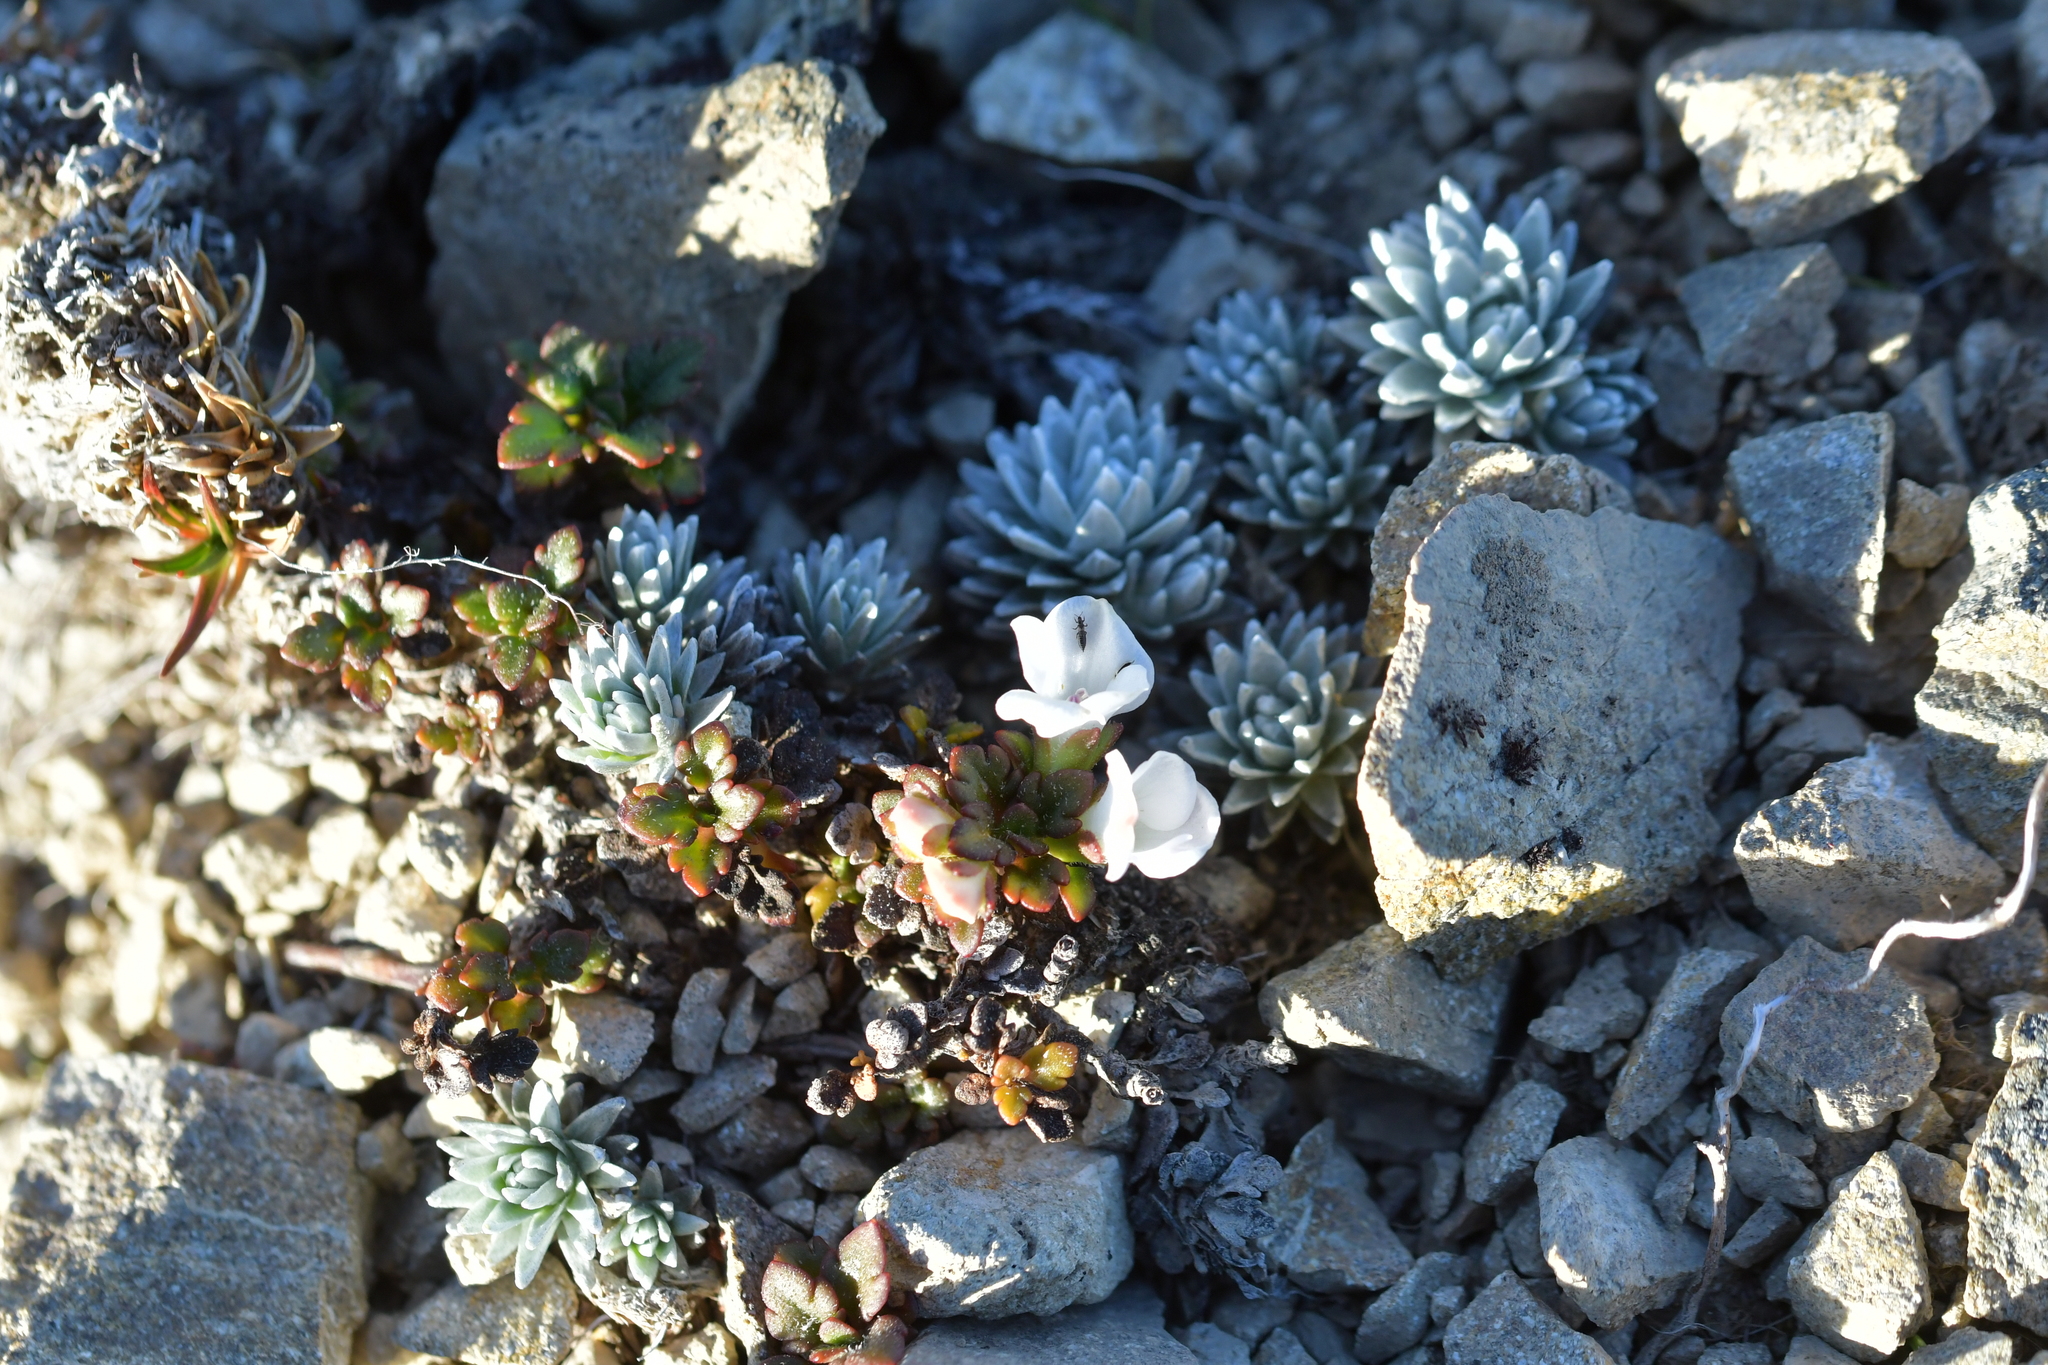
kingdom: Plantae
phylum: Tracheophyta
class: Magnoliopsida
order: Lamiales
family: Plantaginaceae
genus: Veronica
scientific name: Veronica spathulata
